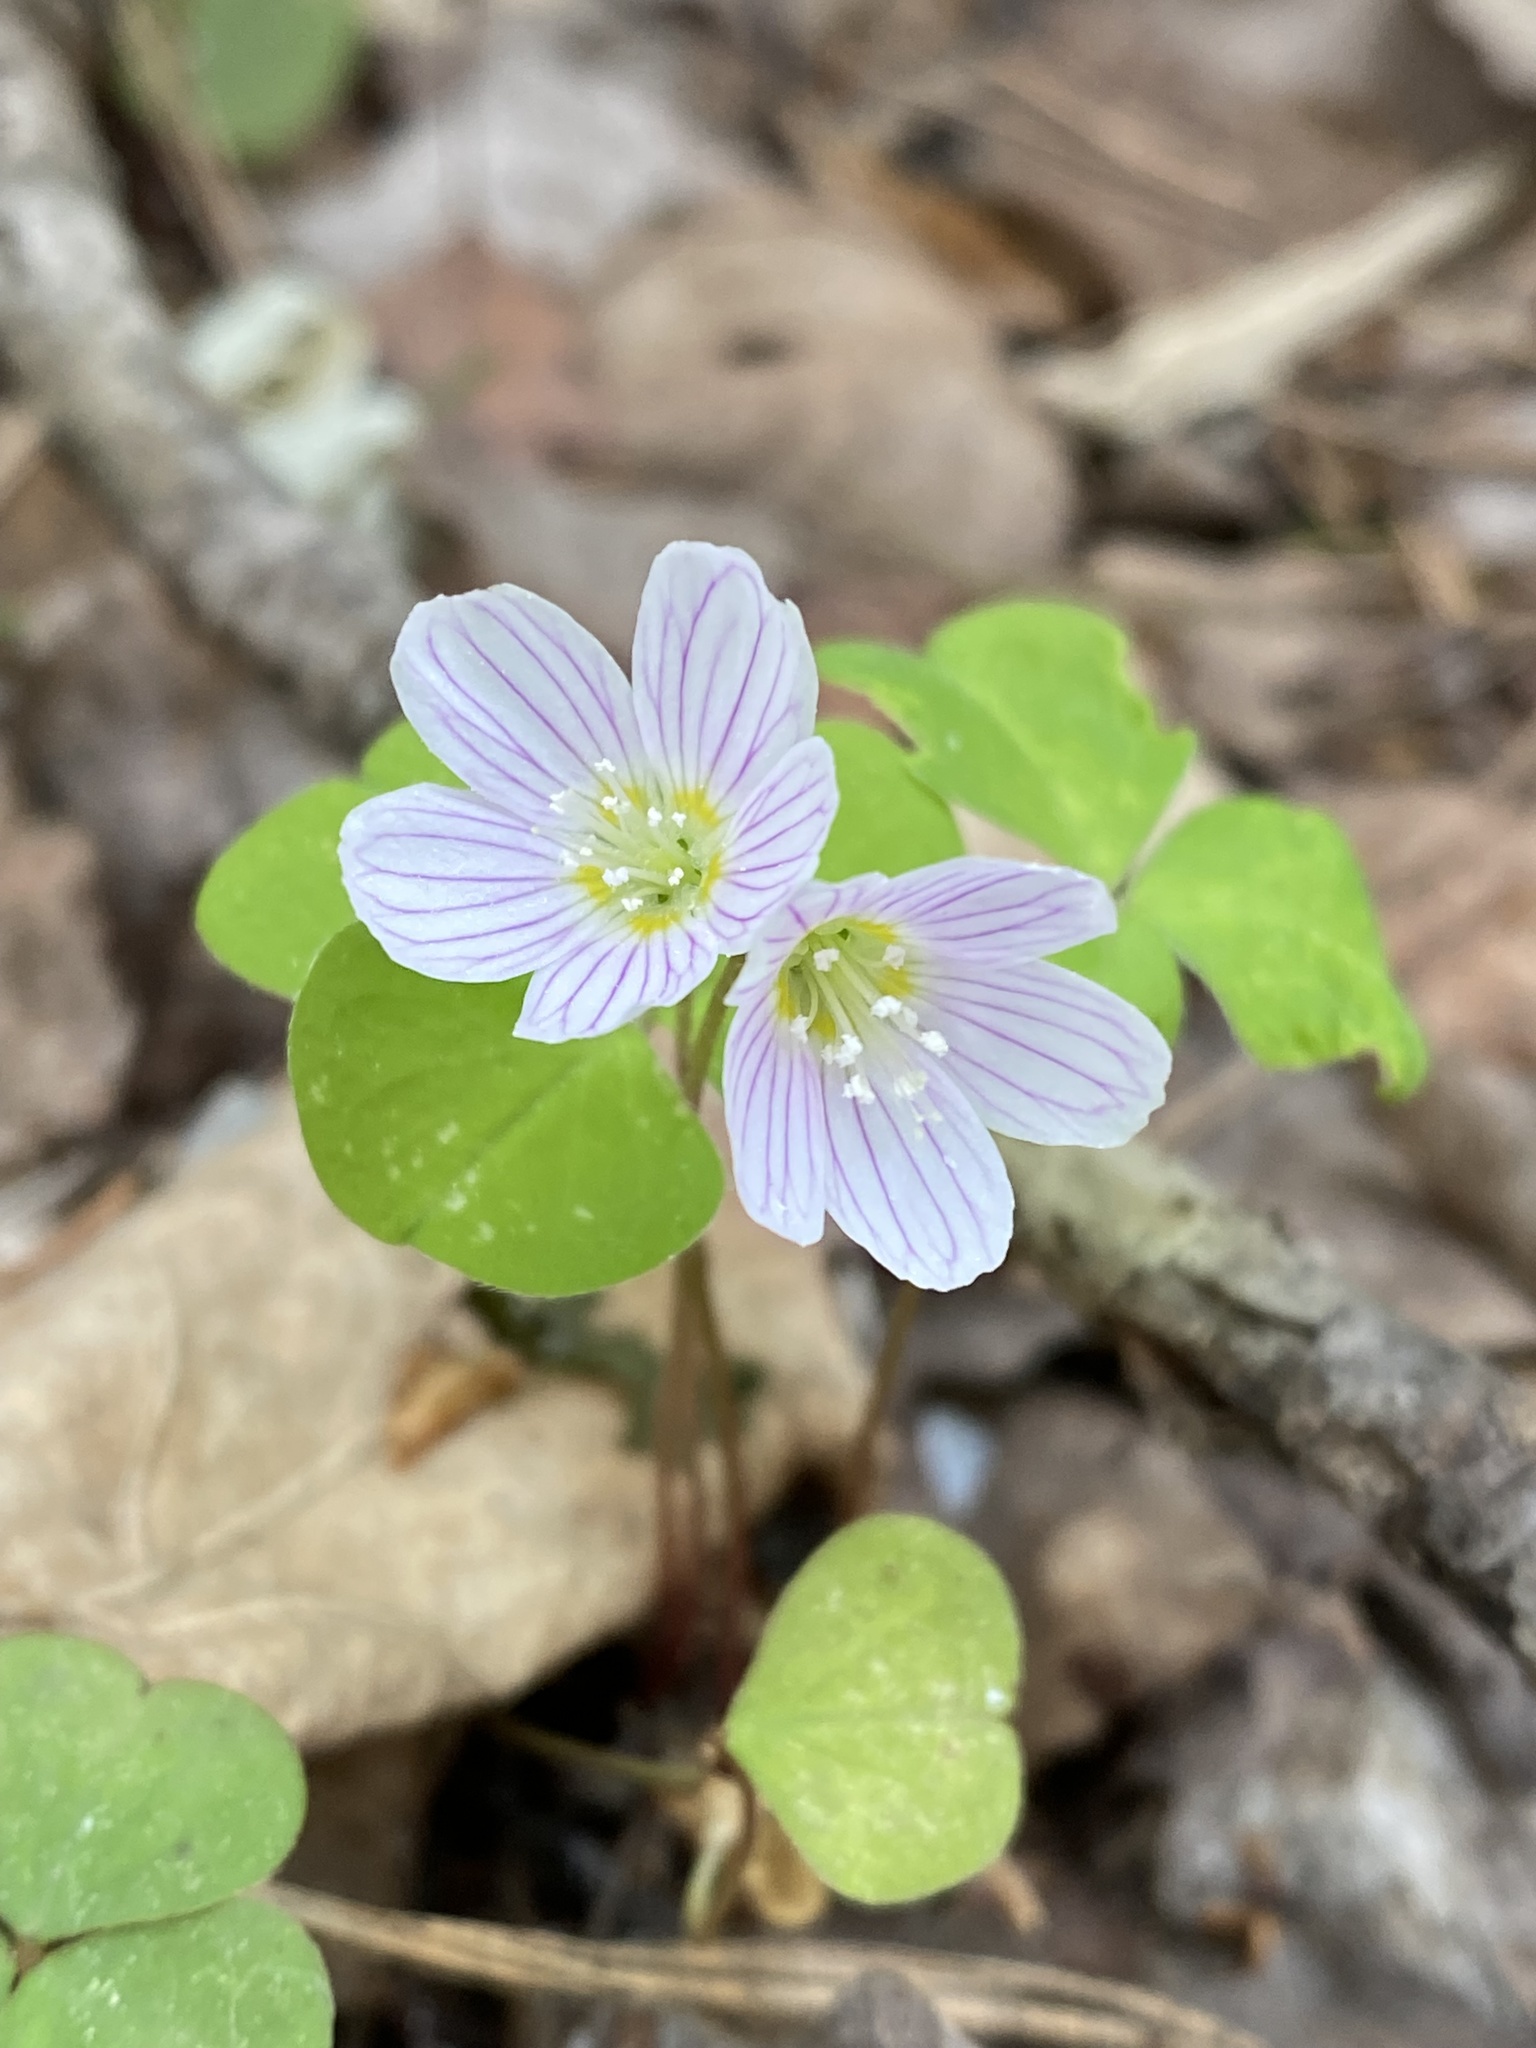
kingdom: Plantae
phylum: Tracheophyta
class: Magnoliopsida
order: Oxalidales
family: Oxalidaceae
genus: Oxalis
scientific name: Oxalis acetosella
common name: Wood-sorrel
